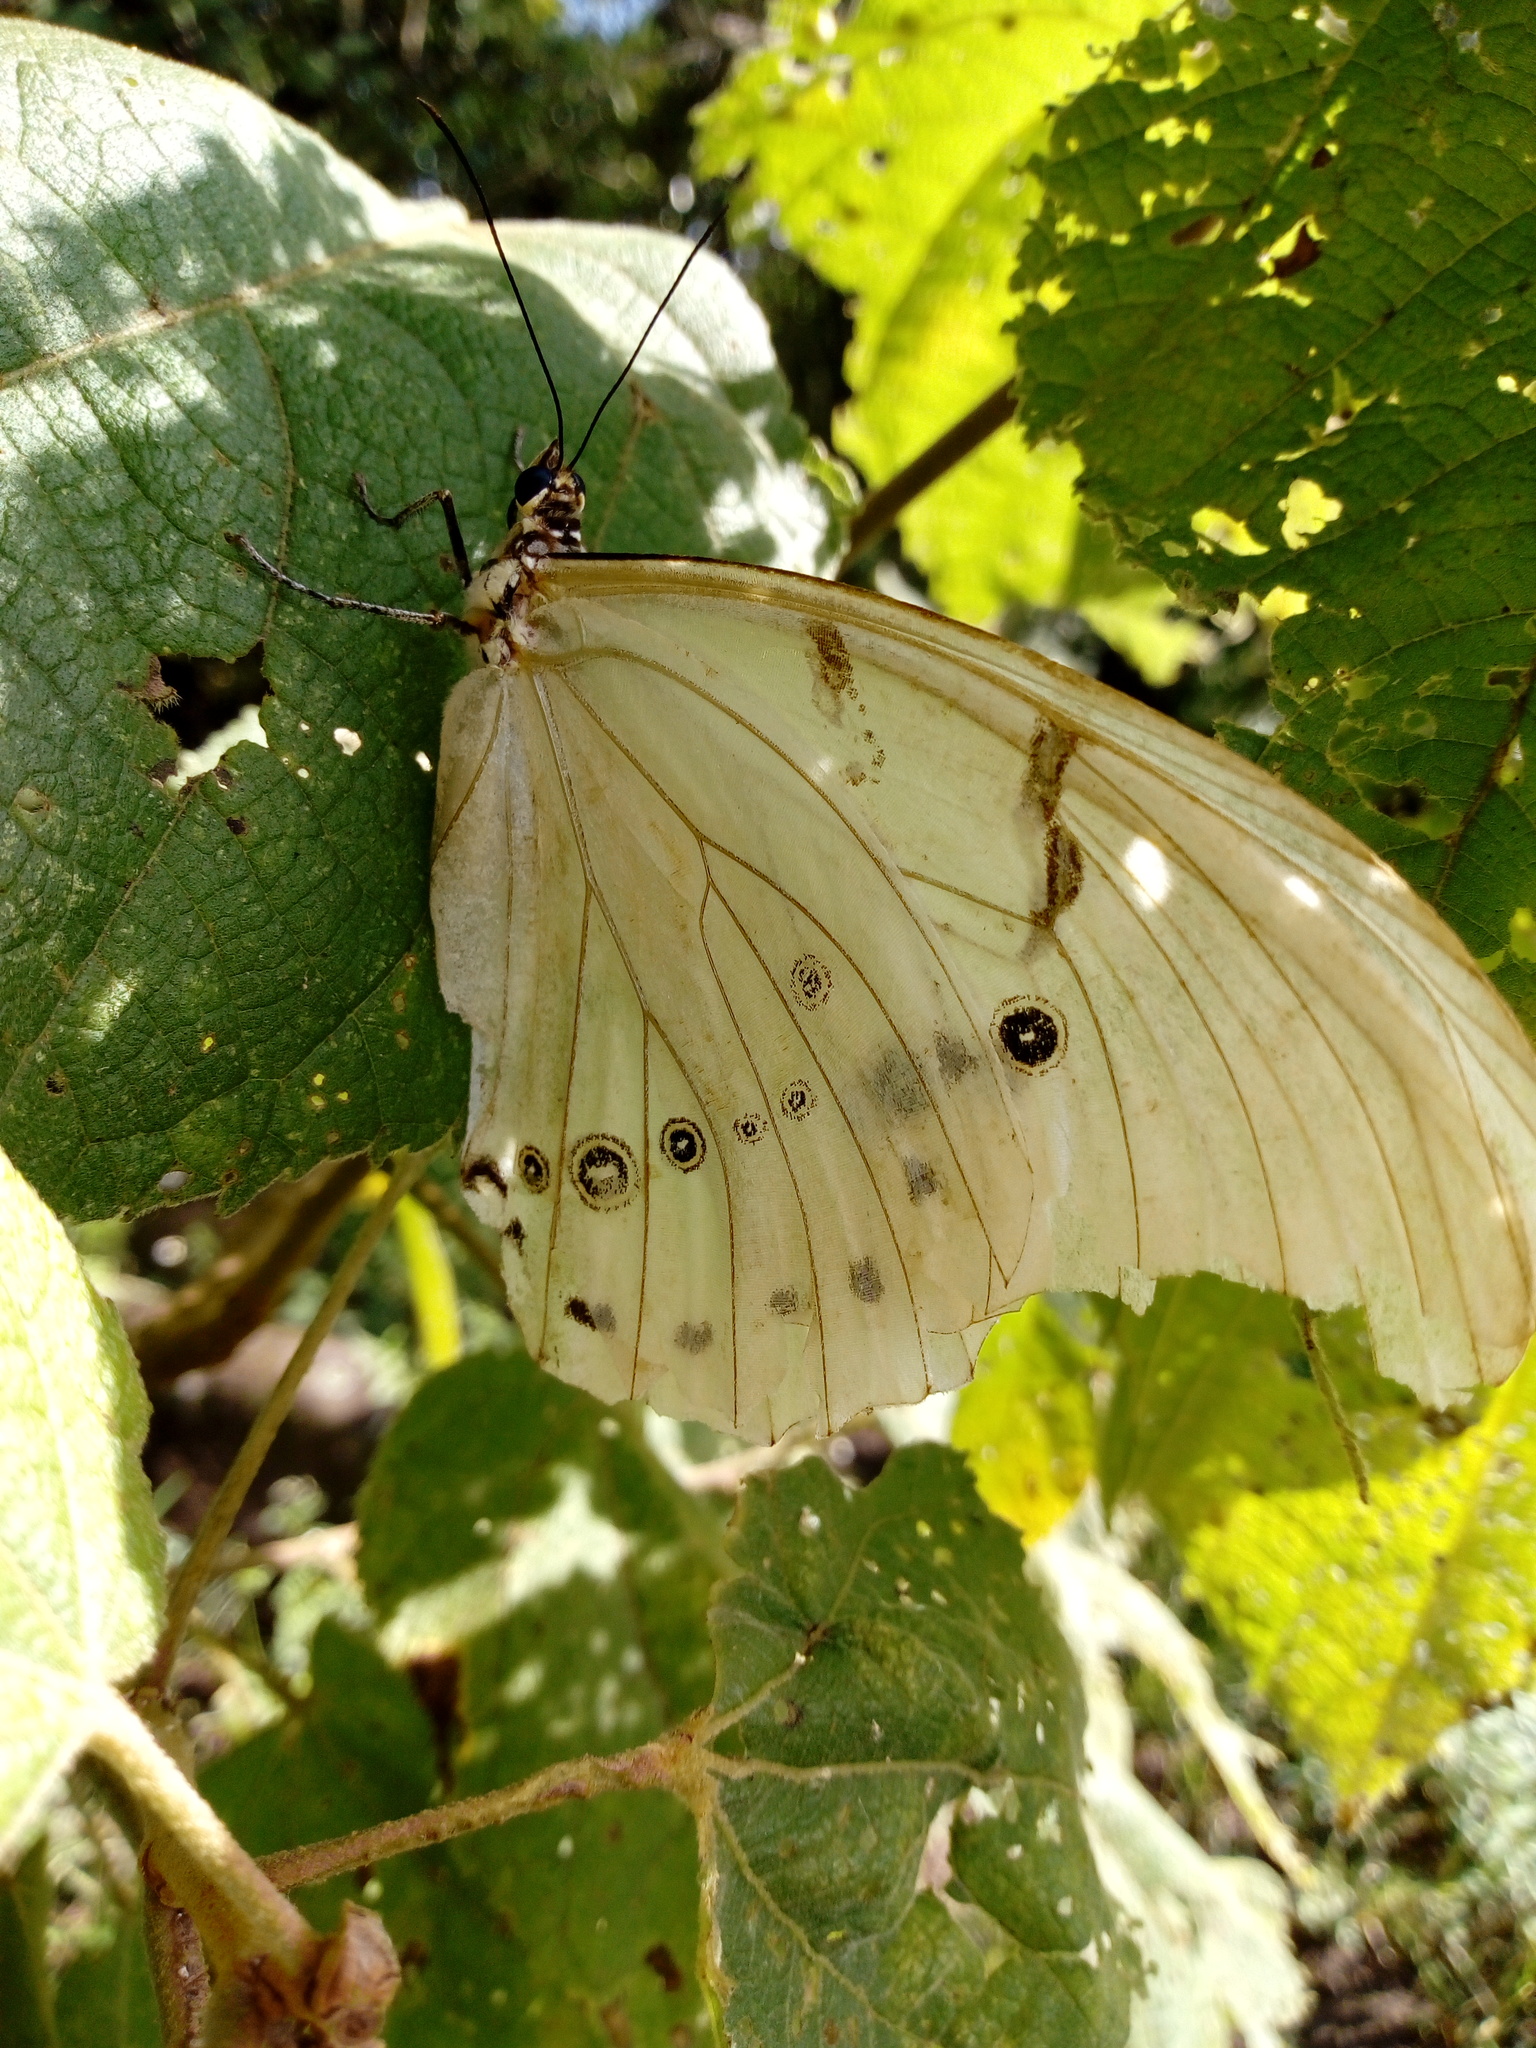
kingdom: Animalia
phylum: Arthropoda
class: Insecta
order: Lepidoptera
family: Nymphalidae
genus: Morpho
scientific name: Morpho polyphemus
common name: White morpho
